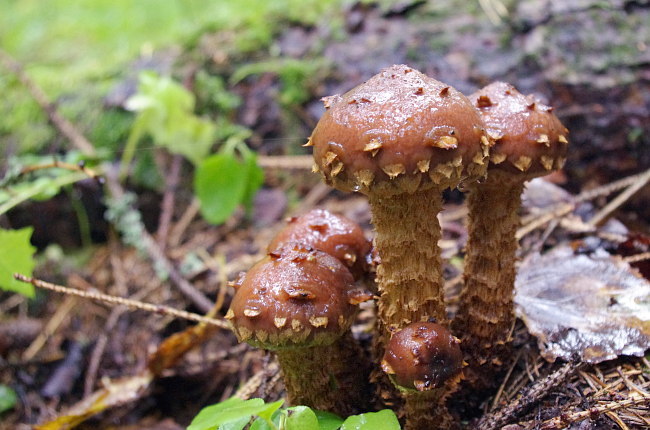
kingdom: Fungi
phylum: Basidiomycota
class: Agaricomycetes
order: Agaricales
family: Tubariaceae
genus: Hemistropharia
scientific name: Hemistropharia albocrenulata
